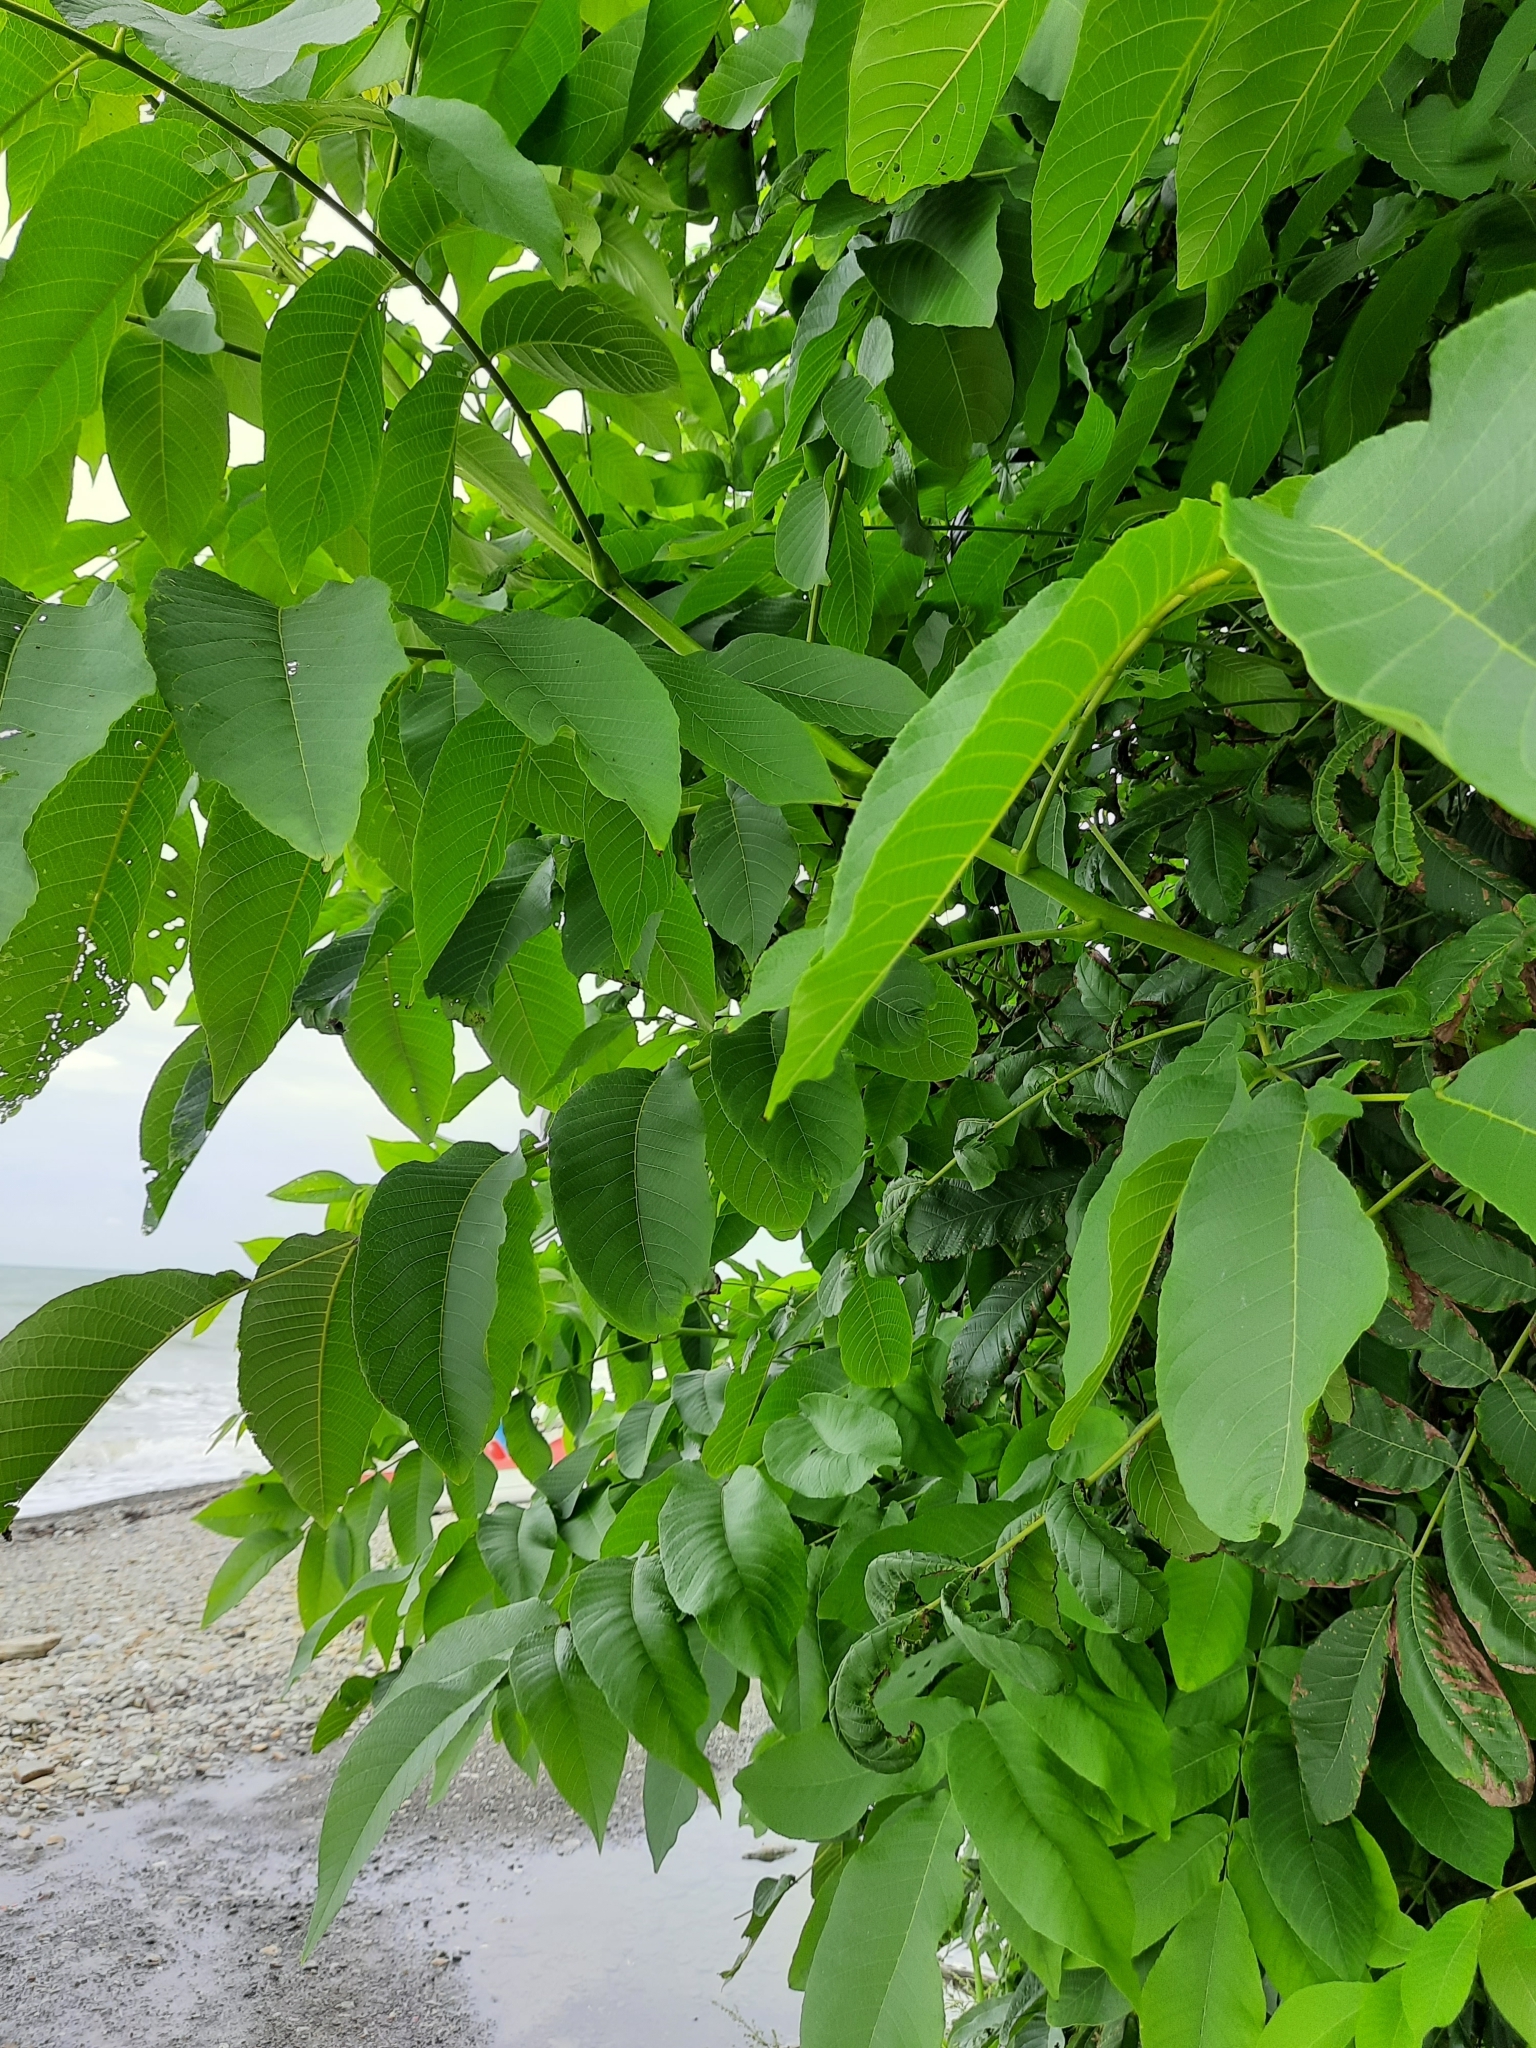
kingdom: Plantae
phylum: Tracheophyta
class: Magnoliopsida
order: Fagales
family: Juglandaceae
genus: Juglans
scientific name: Juglans regia
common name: Walnut
